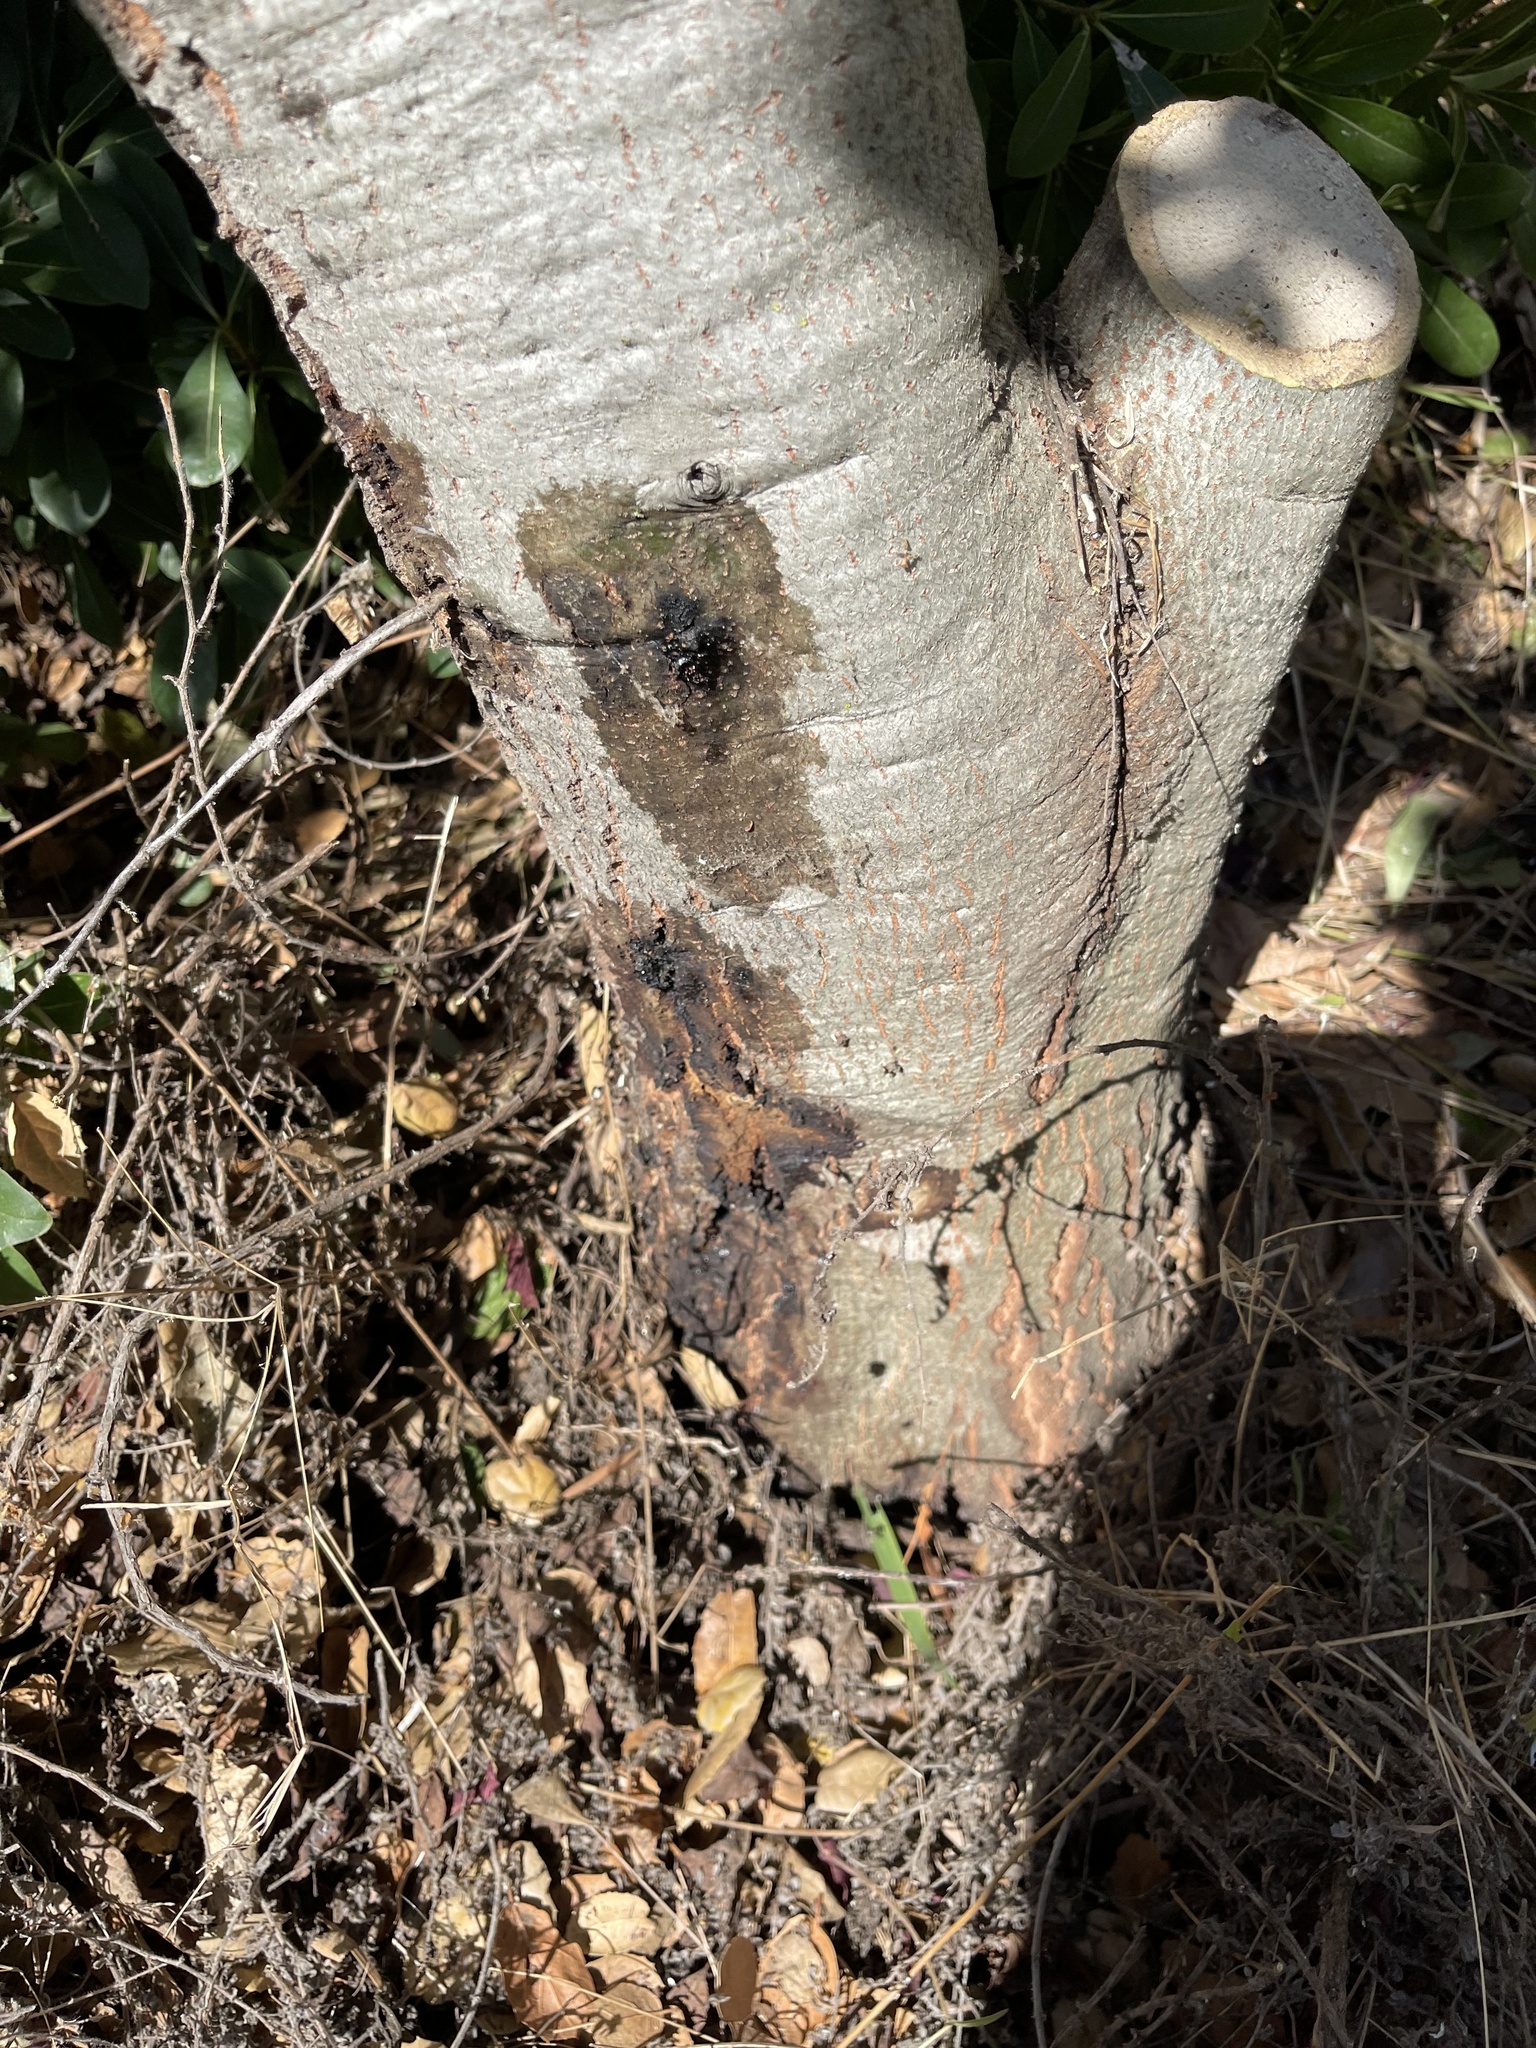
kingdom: Chromista
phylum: Oomycota
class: Peronosporea
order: Peronosporales
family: Peronosporaceae
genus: Phytophthora
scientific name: Phytophthora ramorum
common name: Sudden oak death
